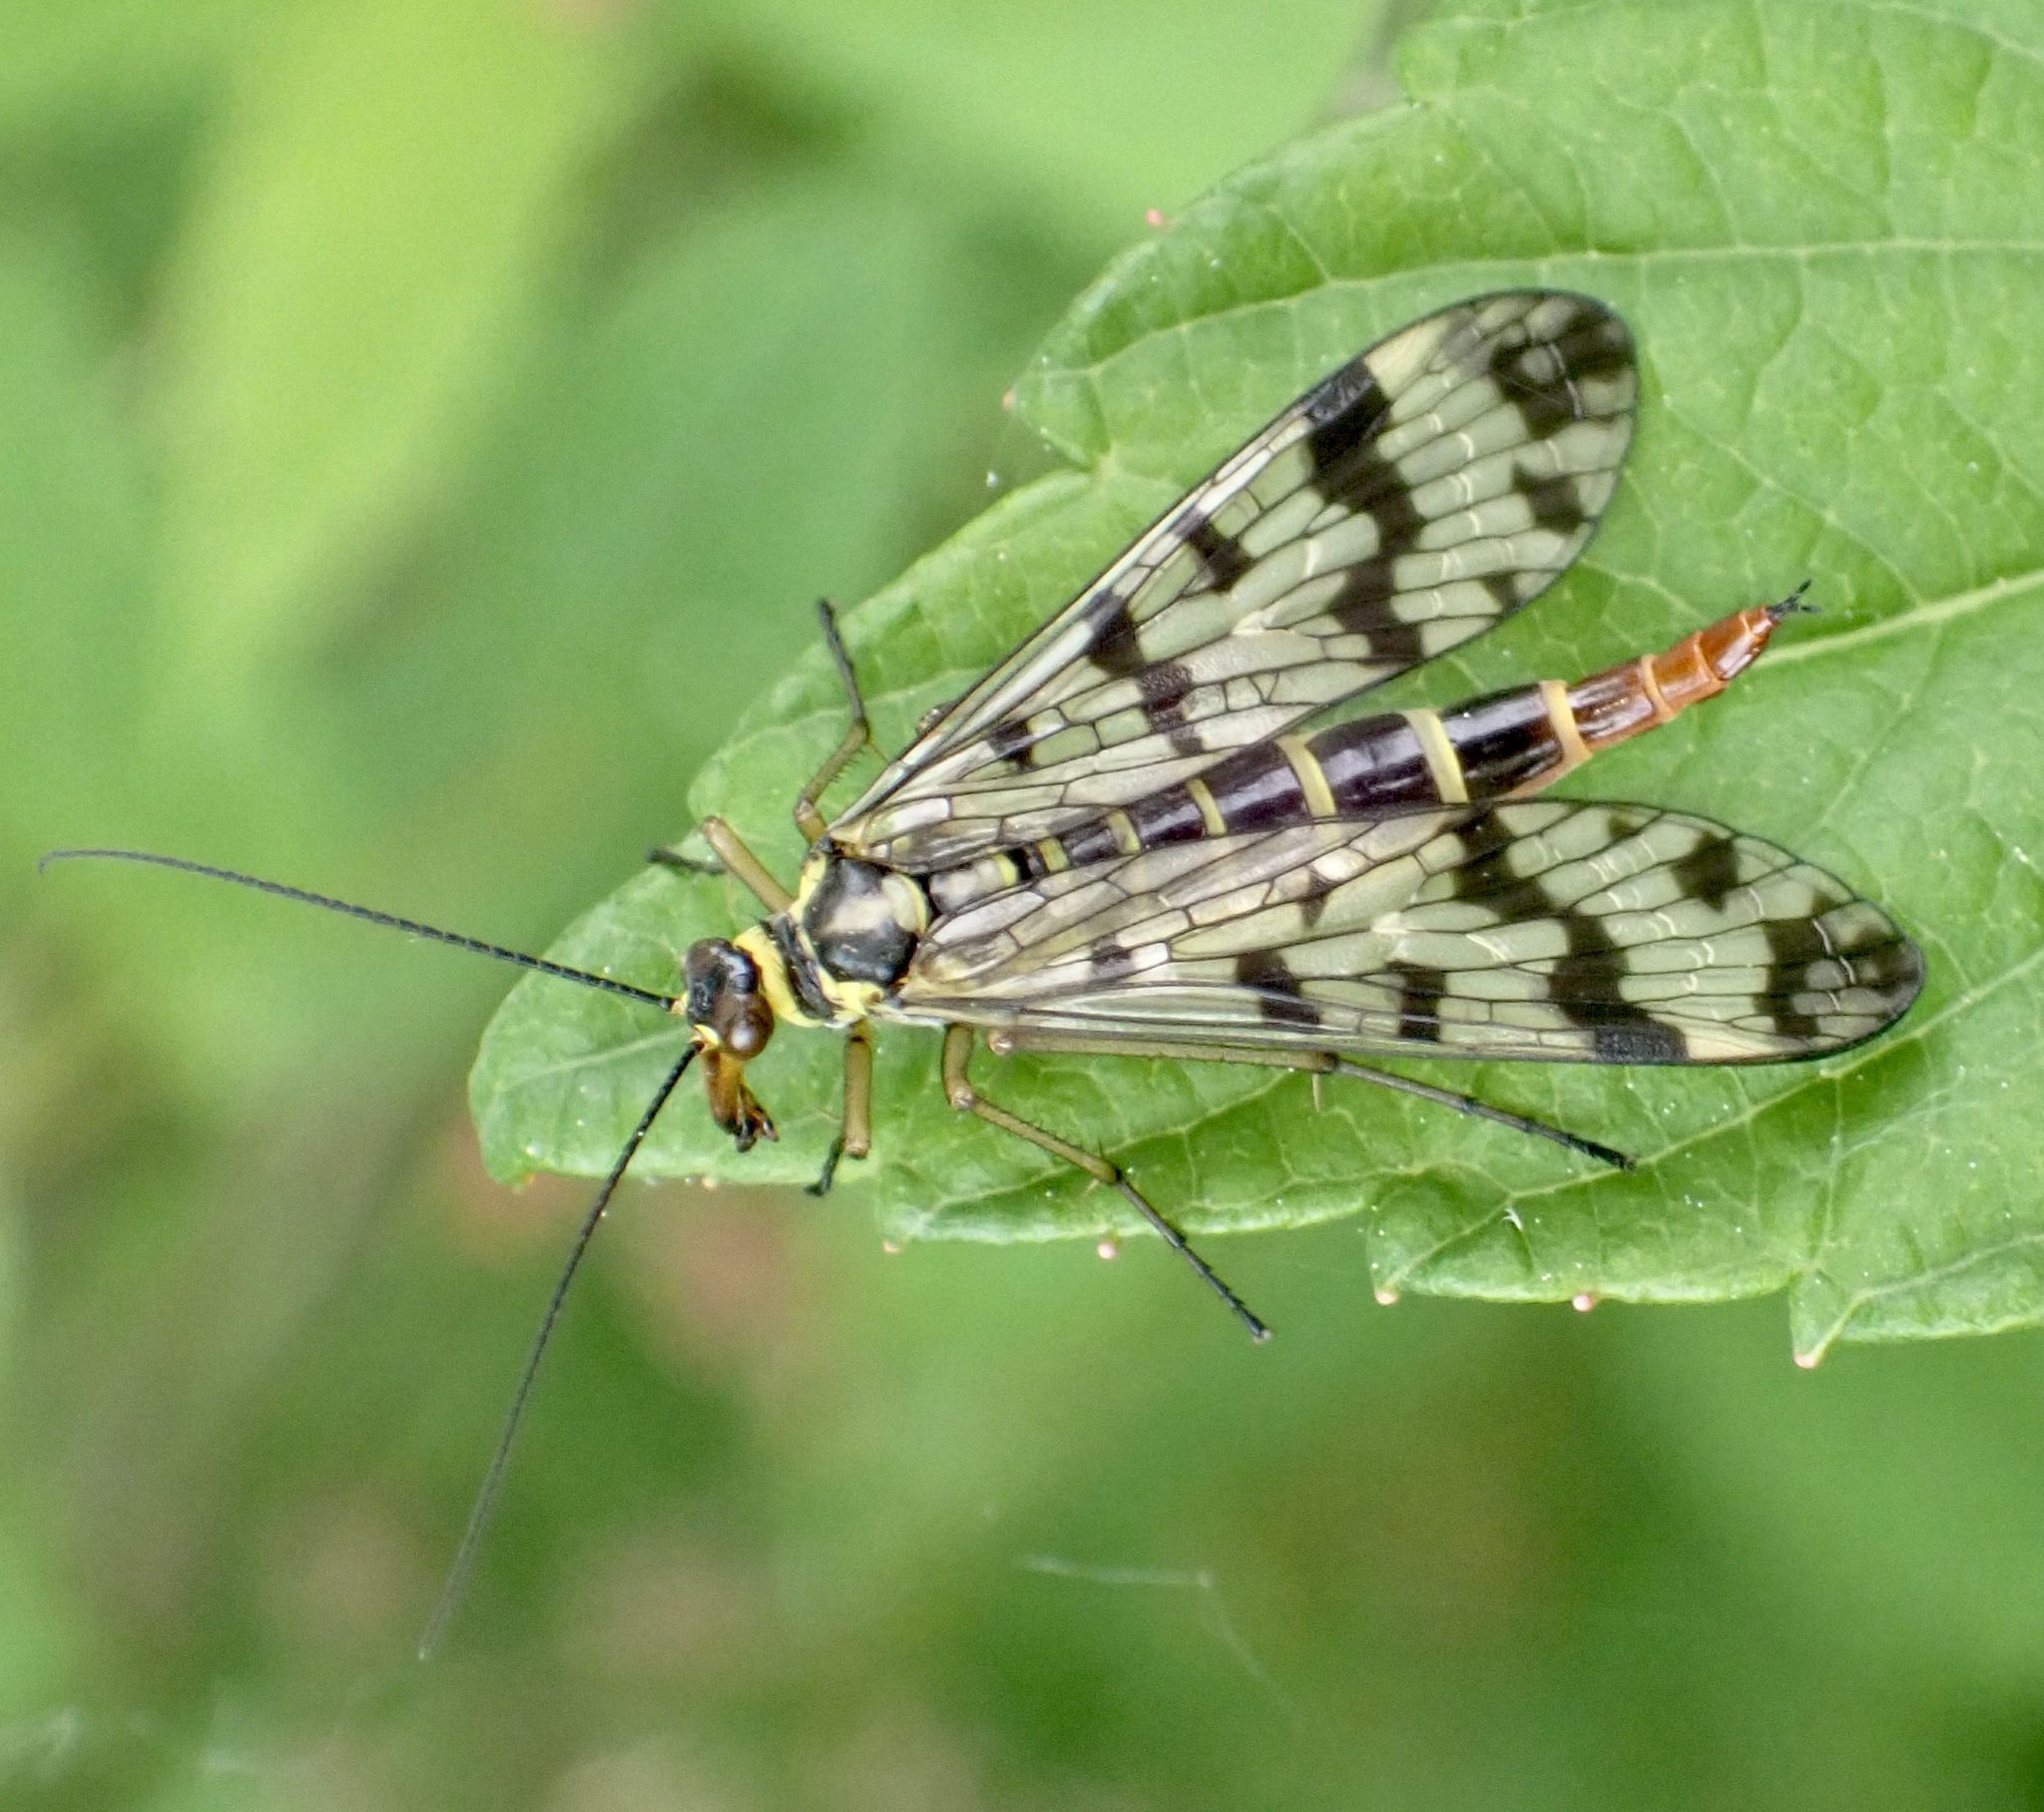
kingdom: Animalia
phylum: Arthropoda
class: Insecta
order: Mecoptera
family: Panorpidae
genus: Panorpa
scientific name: Panorpa communis
